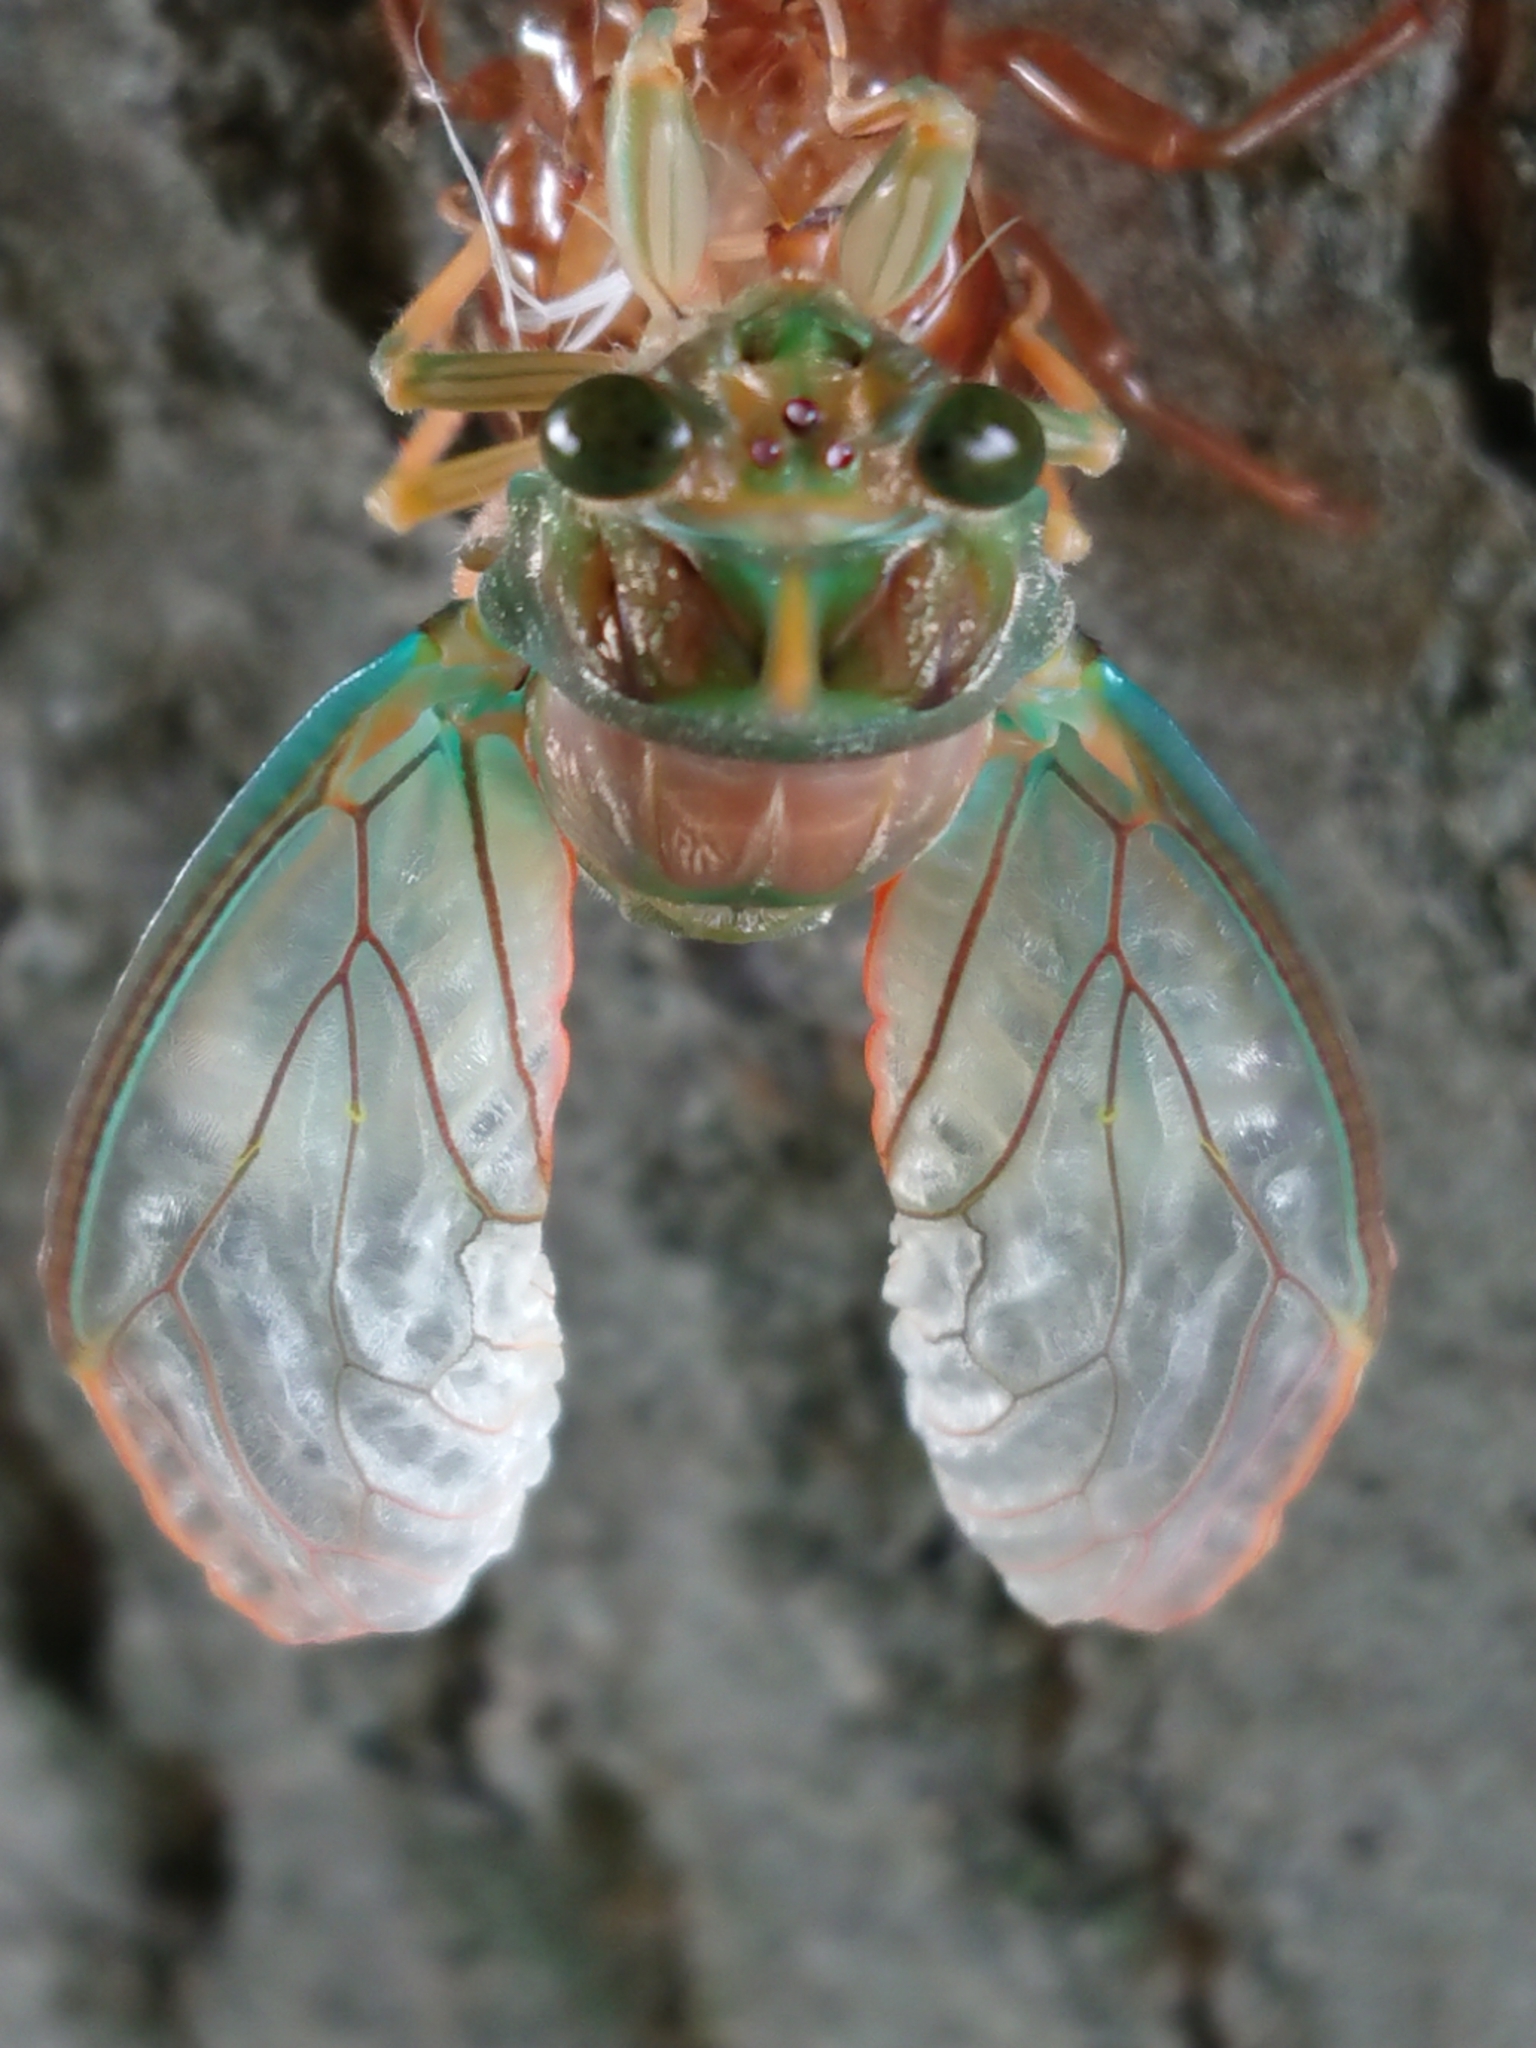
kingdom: Animalia
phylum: Arthropoda
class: Insecta
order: Hemiptera
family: Cicadidae
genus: Amphipsalta
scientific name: Amphipsalta zelandica
